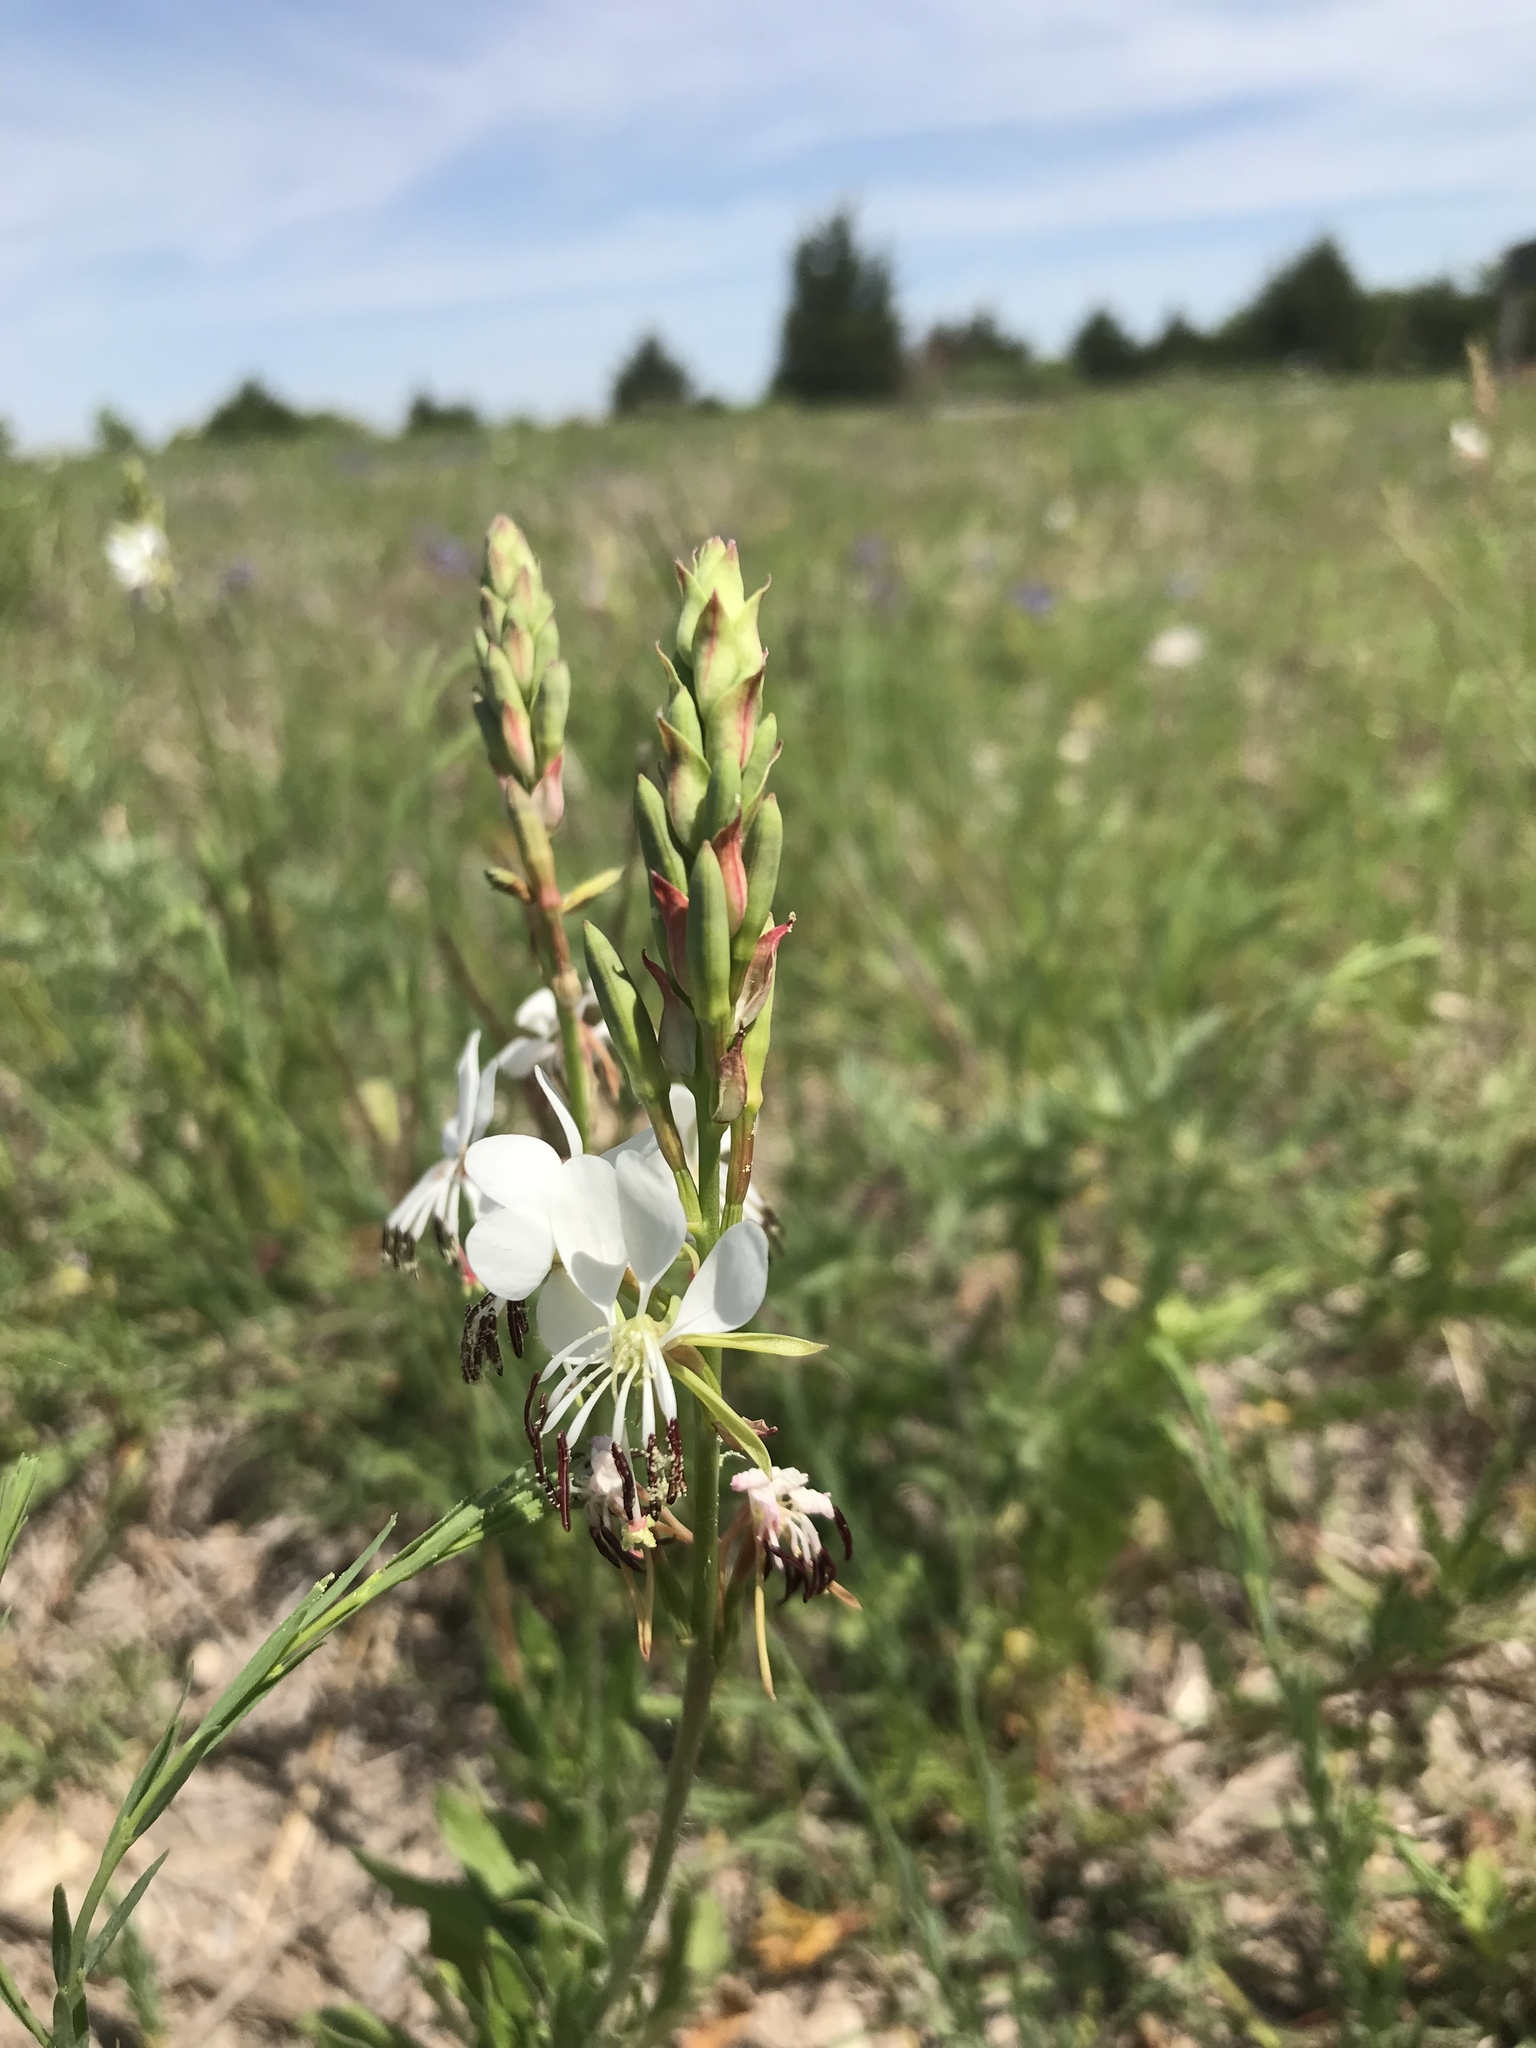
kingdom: Plantae
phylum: Tracheophyta
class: Magnoliopsida
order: Myrtales
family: Onagraceae
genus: Oenothera
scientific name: Oenothera suffulta
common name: Kisses
